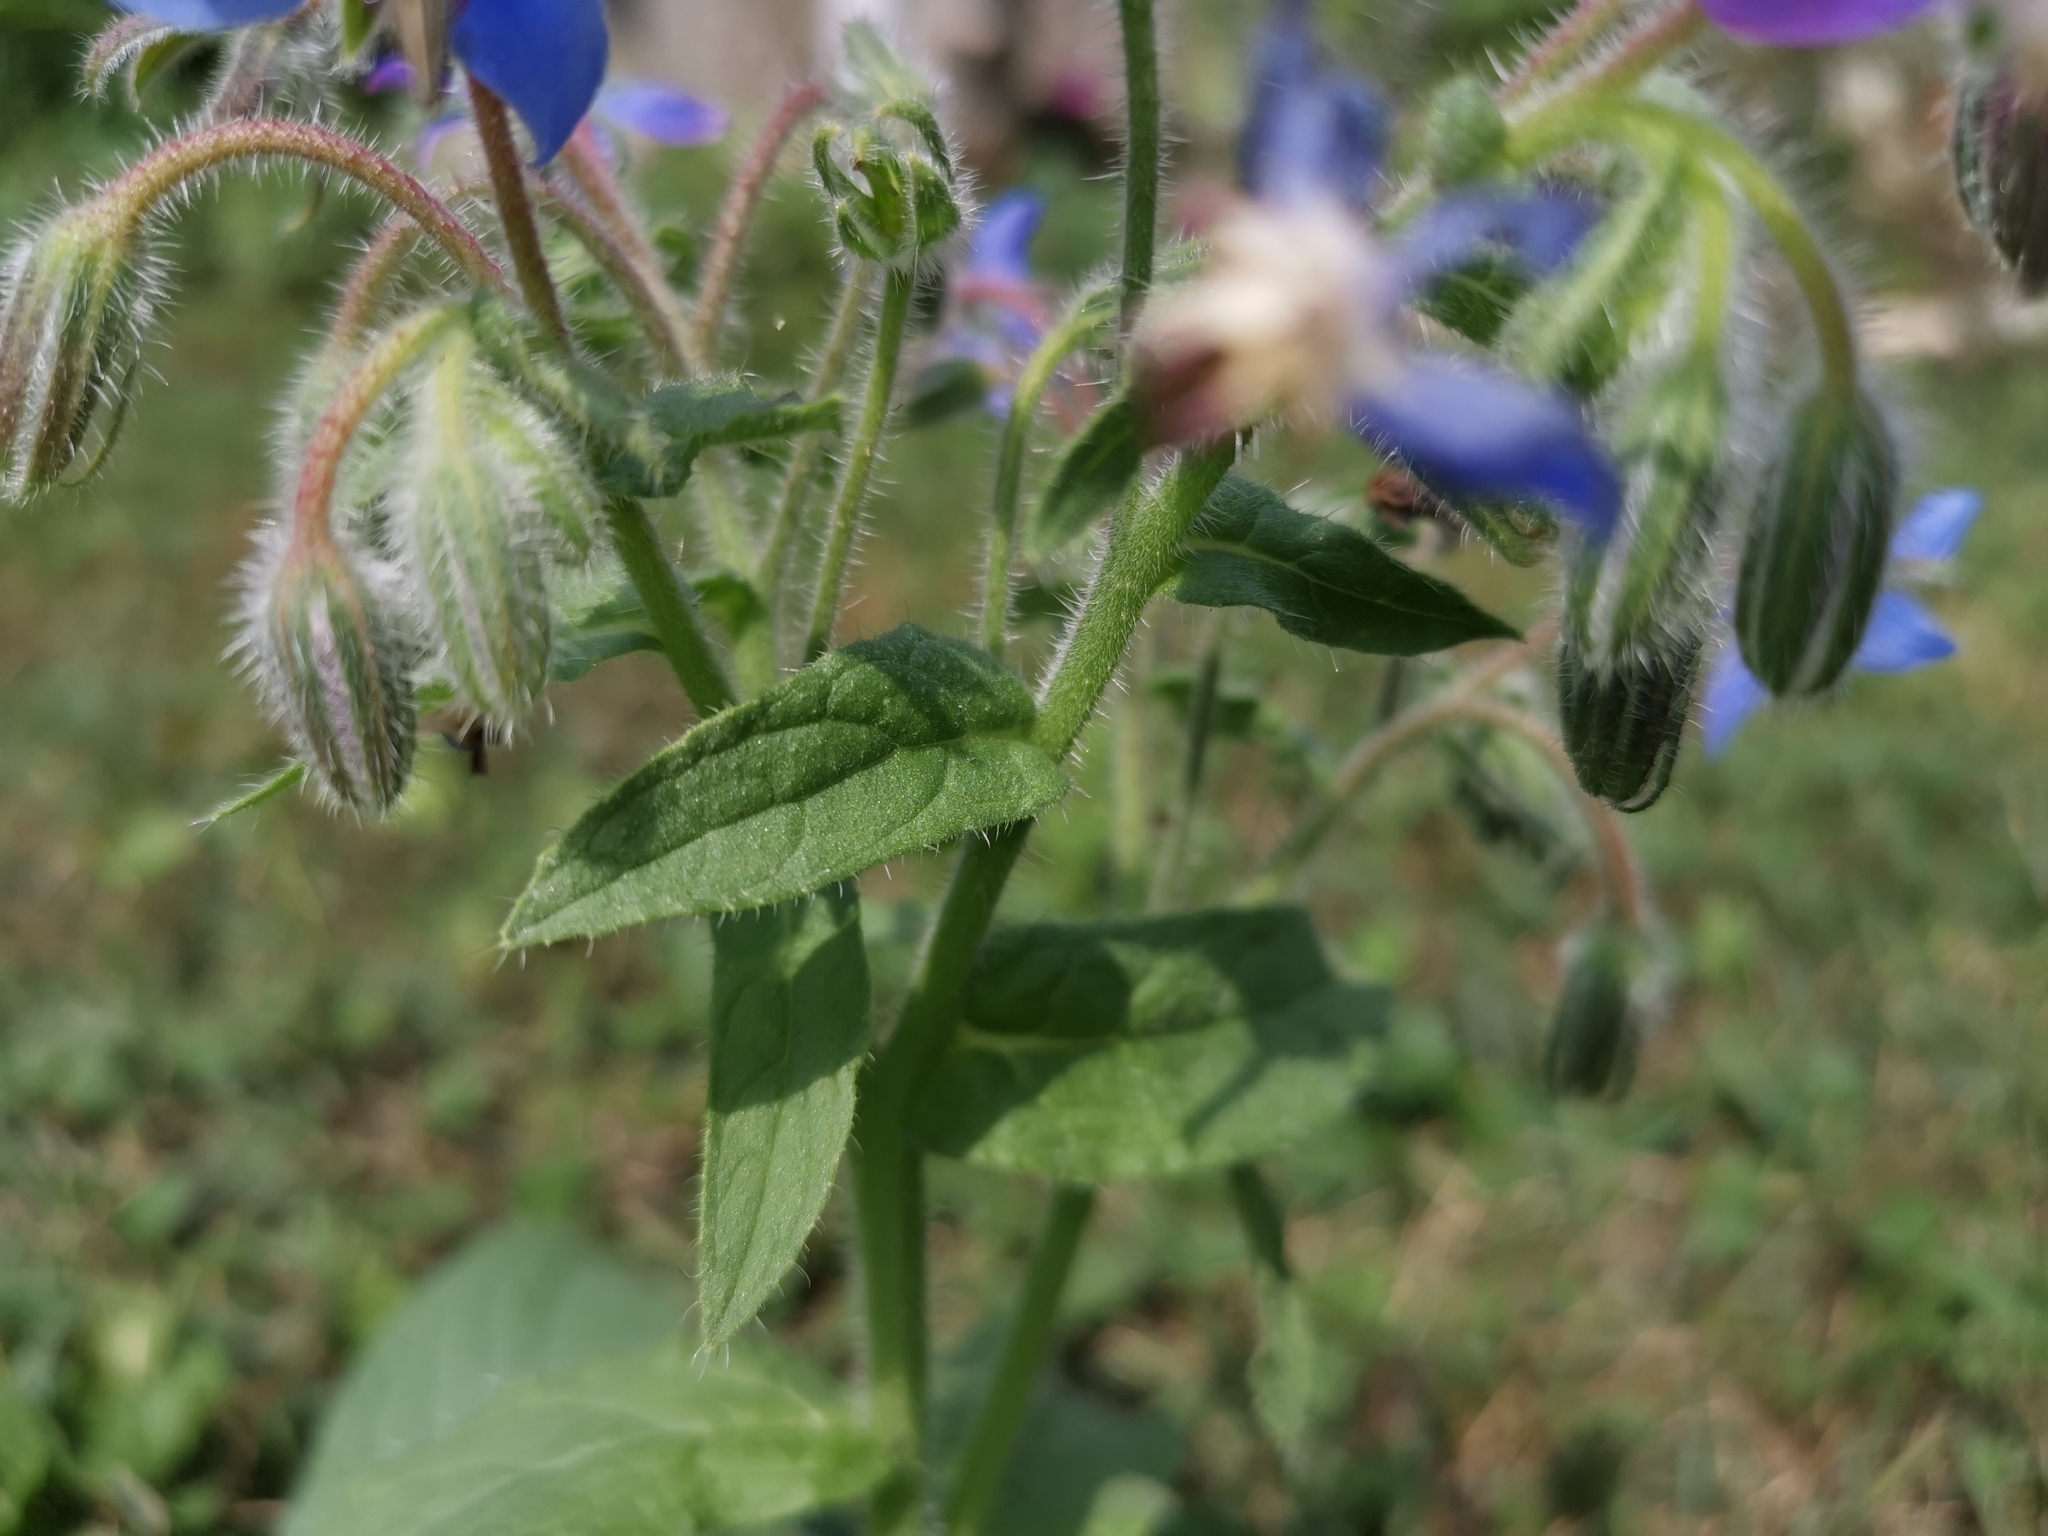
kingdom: Plantae
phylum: Tracheophyta
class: Magnoliopsida
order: Boraginales
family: Boraginaceae
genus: Borago
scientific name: Borago officinalis
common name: Borage
